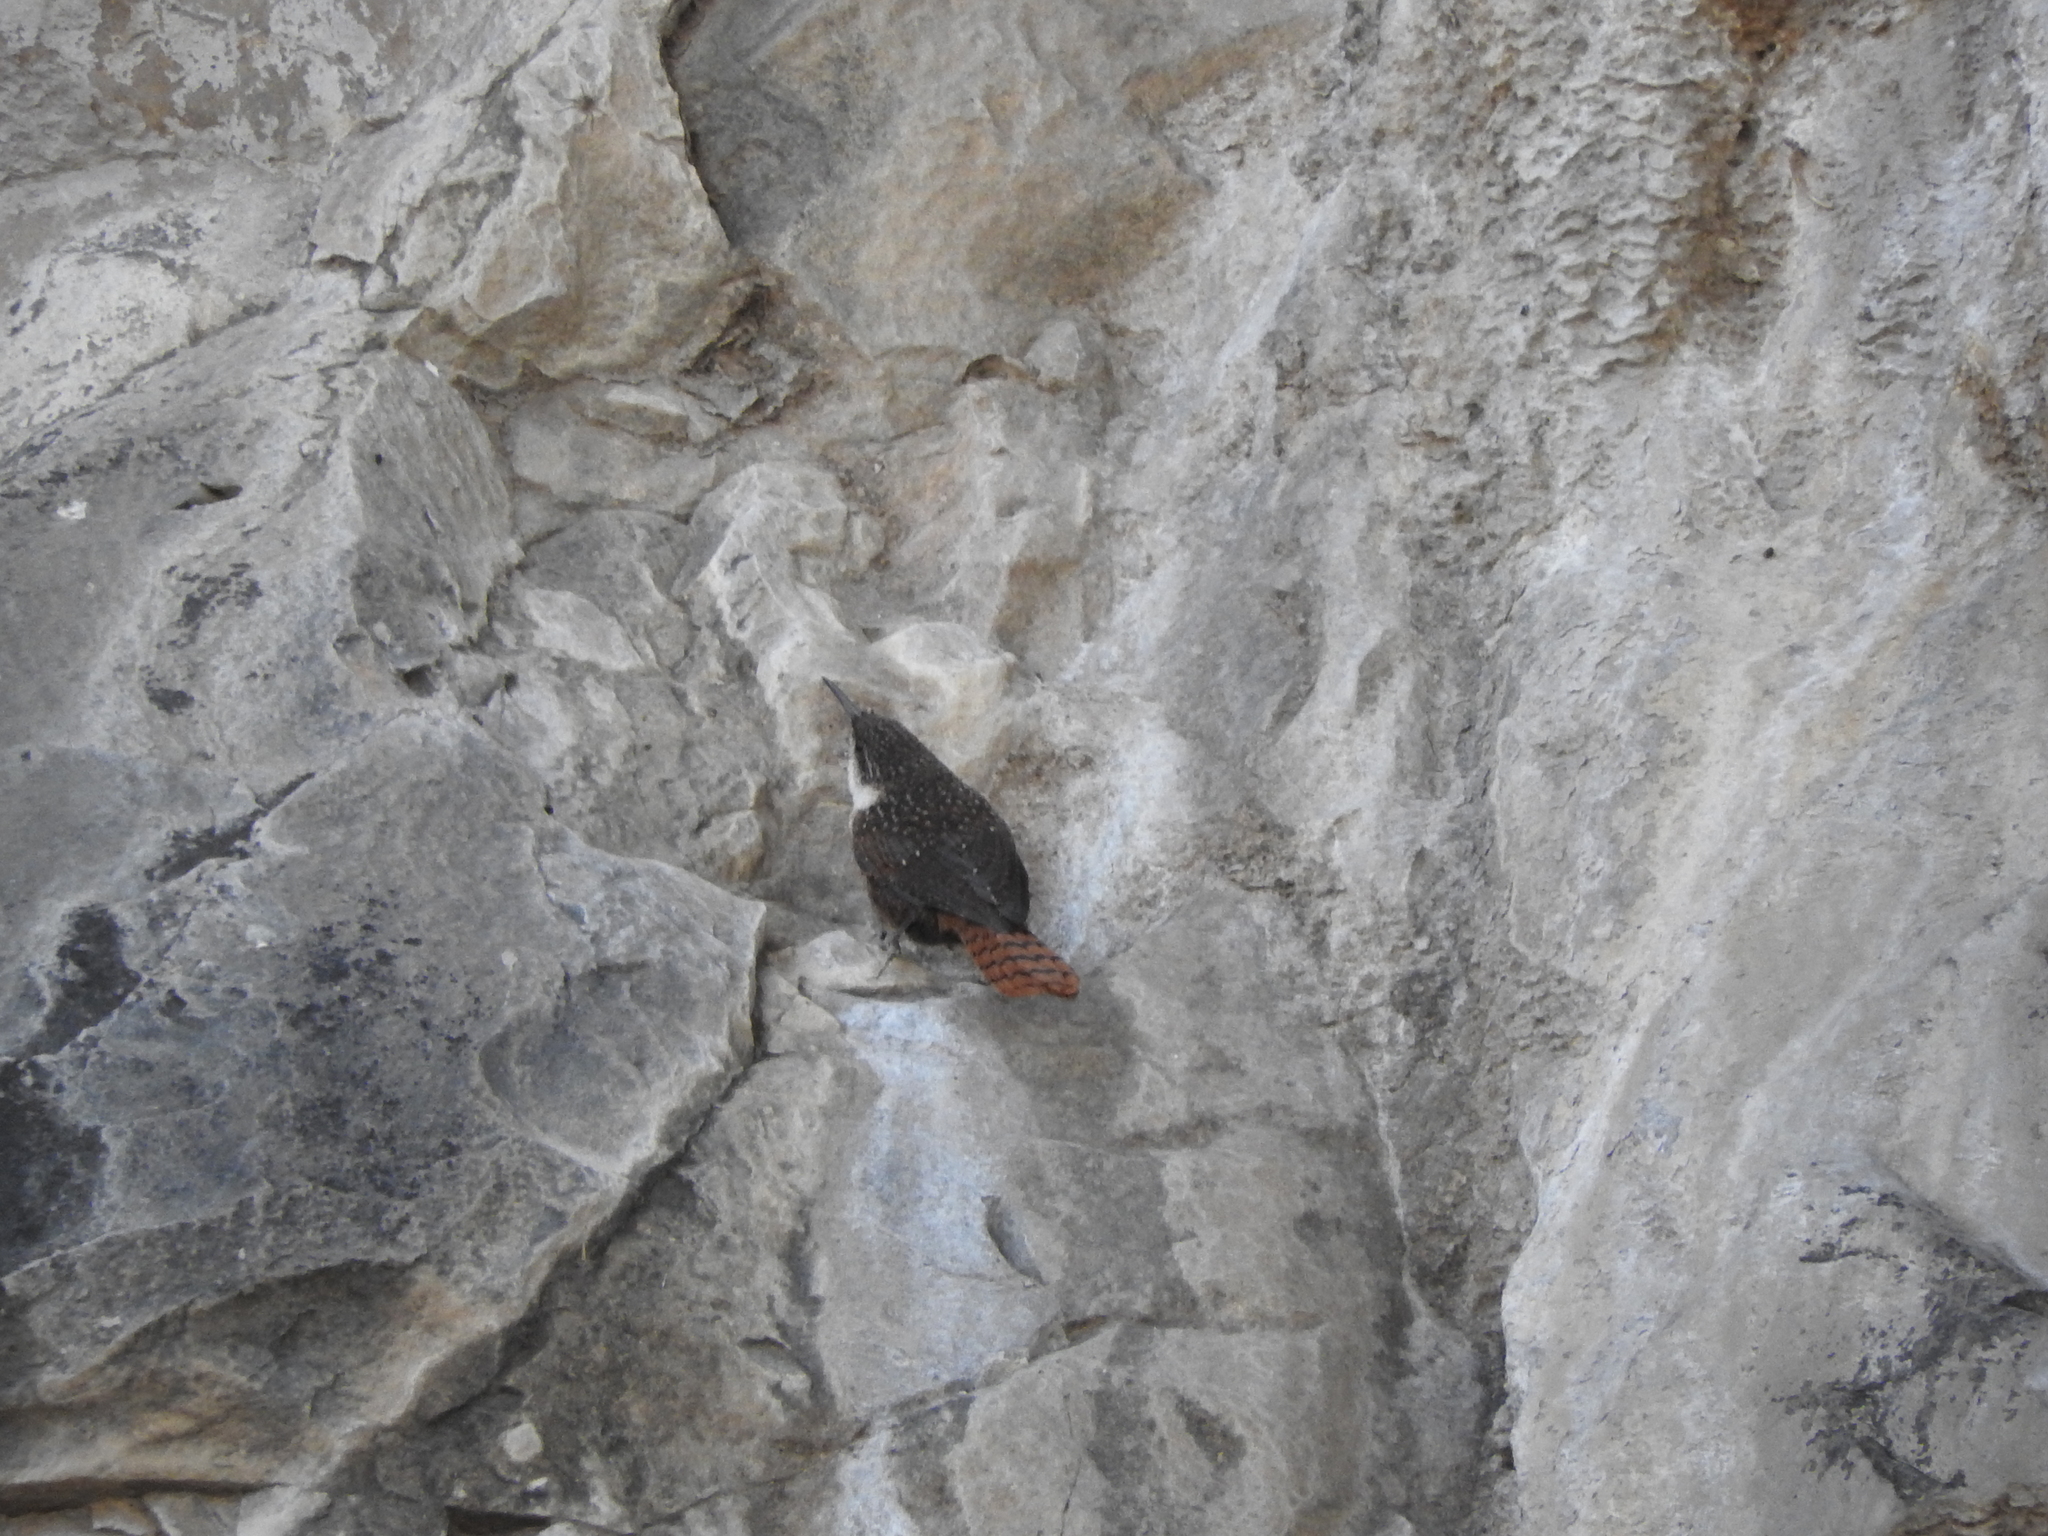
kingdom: Animalia
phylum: Chordata
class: Aves
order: Passeriformes
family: Troglodytidae
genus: Catherpes
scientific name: Catherpes mexicanus
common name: Canyon wren
